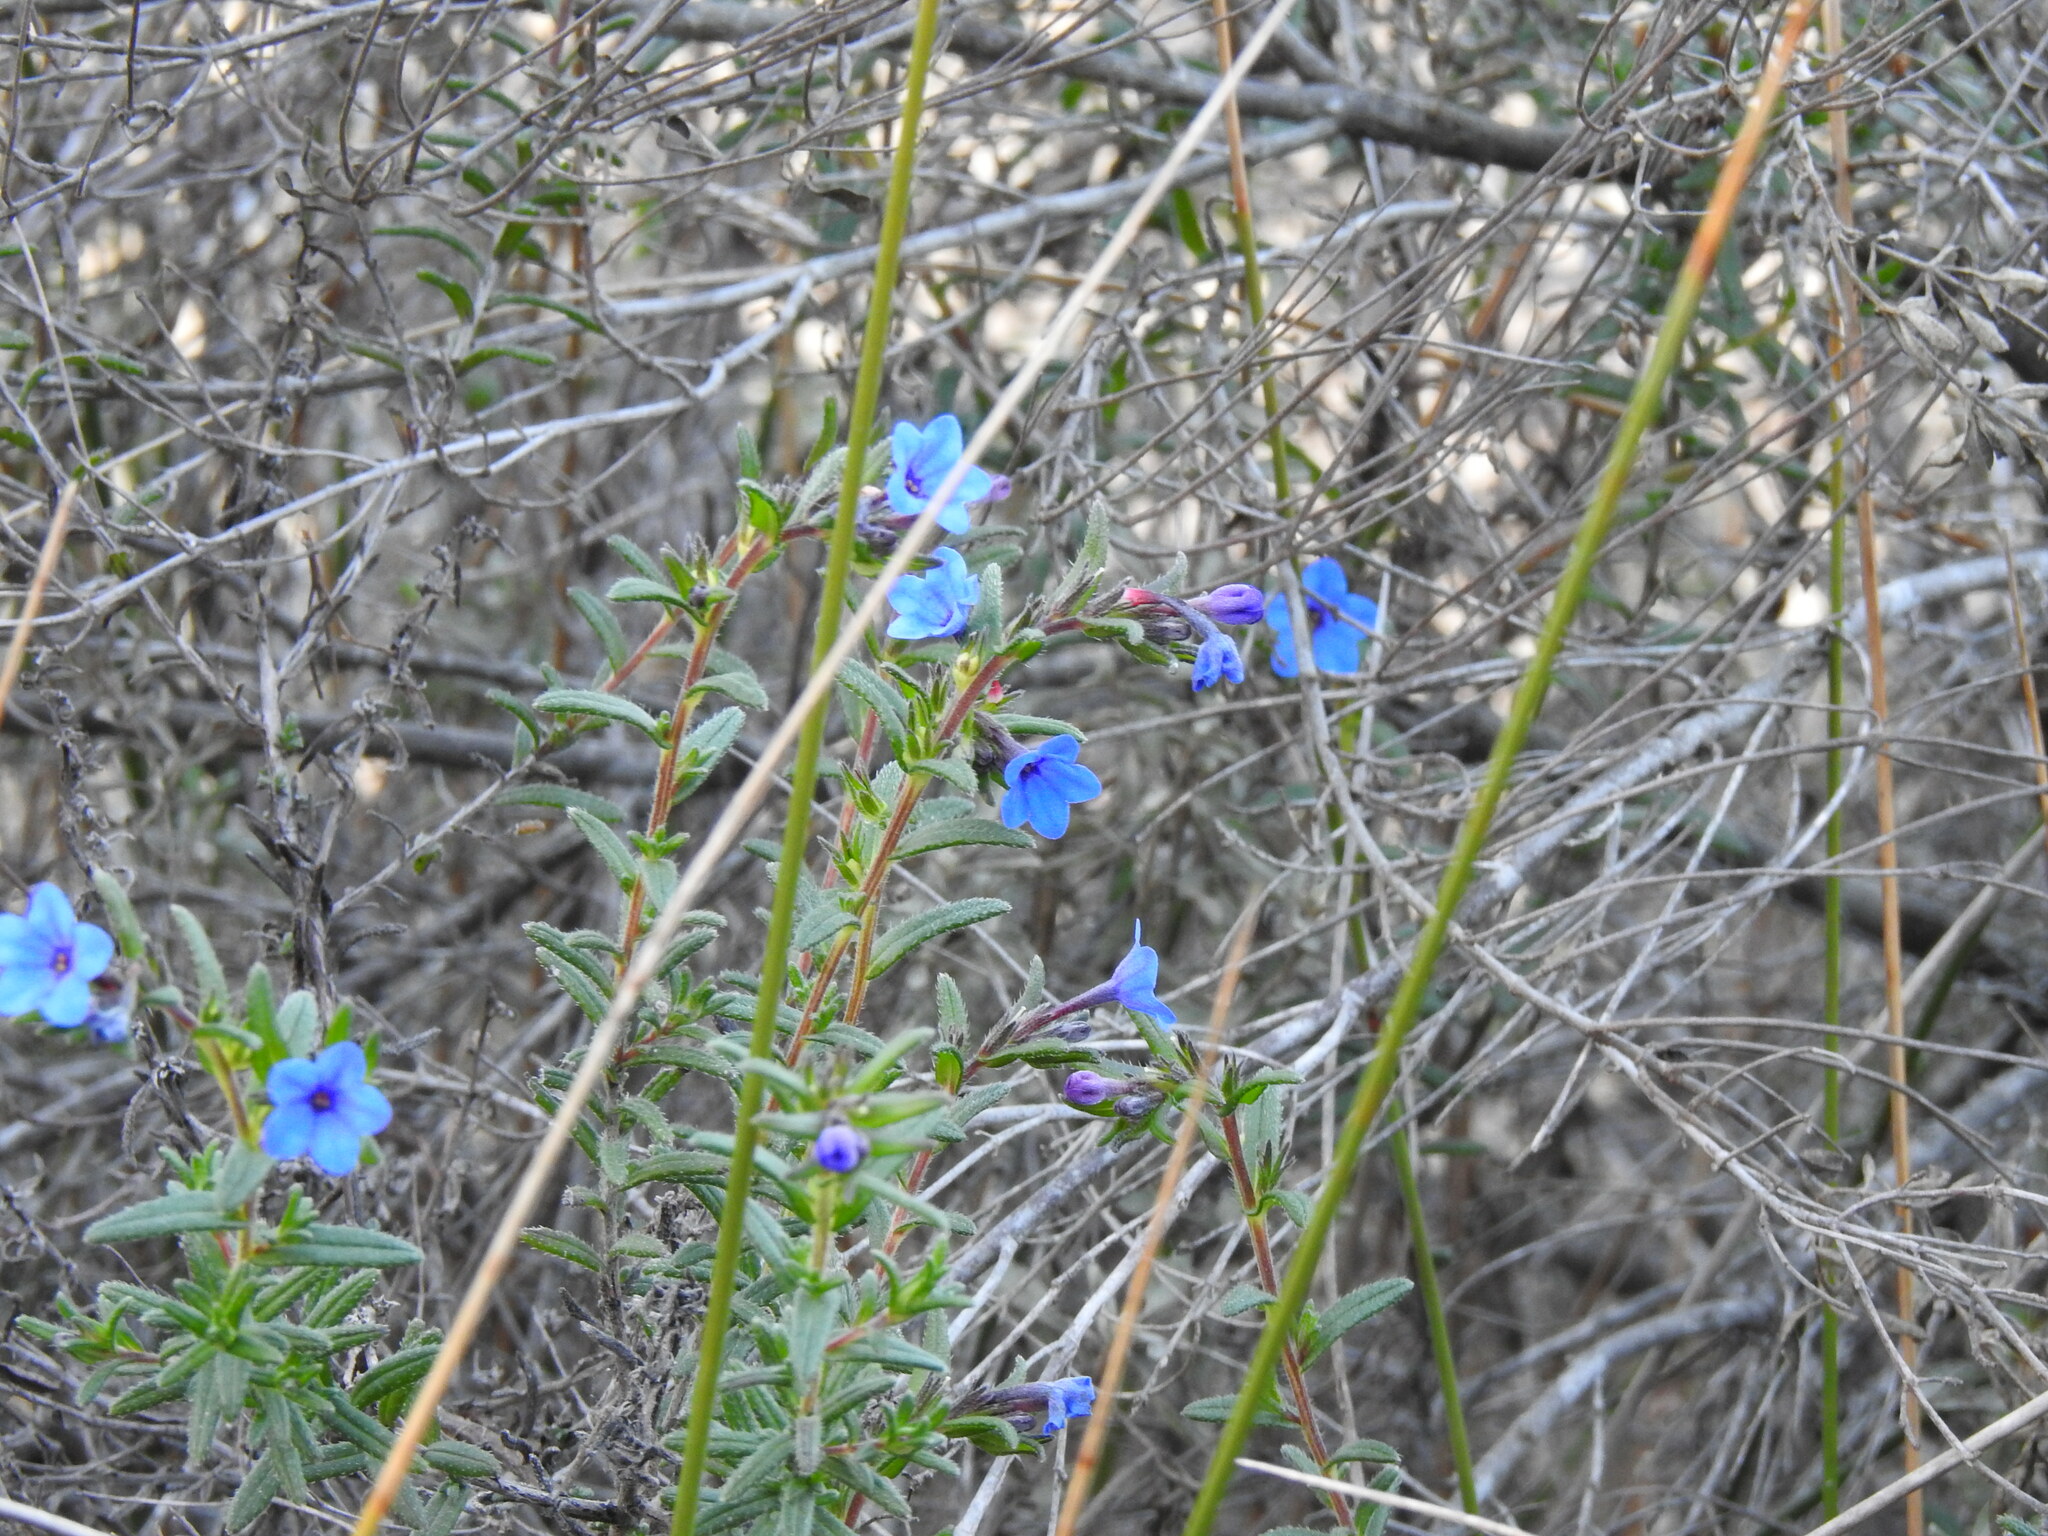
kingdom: Plantae
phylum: Tracheophyta
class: Magnoliopsida
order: Boraginales
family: Boraginaceae
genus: Glandora
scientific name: Glandora prostrata
